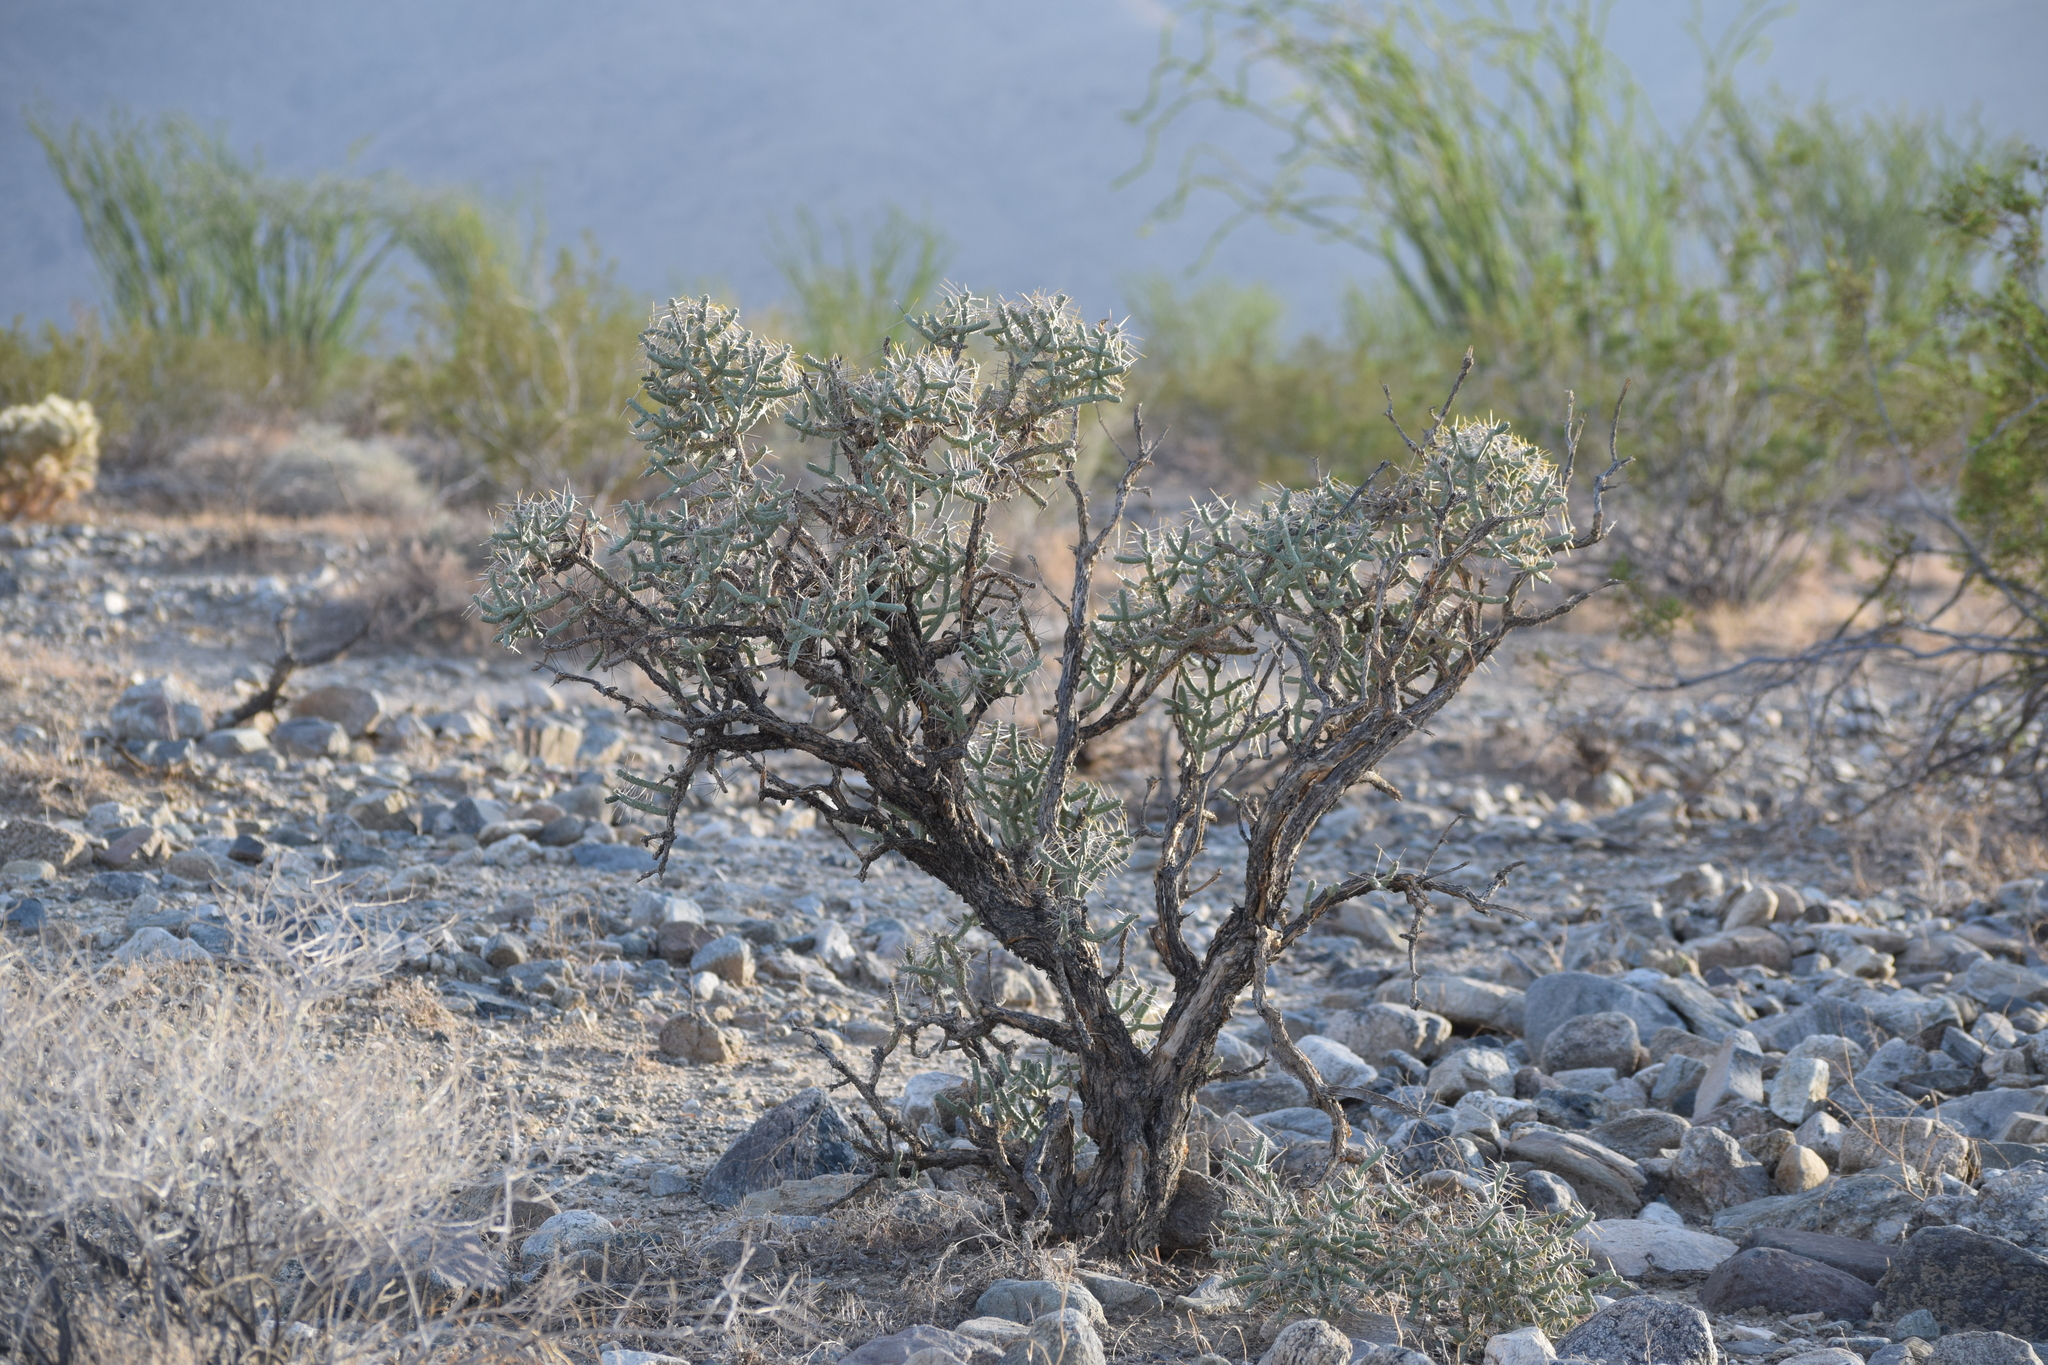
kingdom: Plantae
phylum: Tracheophyta
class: Magnoliopsida
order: Caryophyllales
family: Cactaceae
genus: Cylindropuntia
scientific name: Cylindropuntia ramosissima
